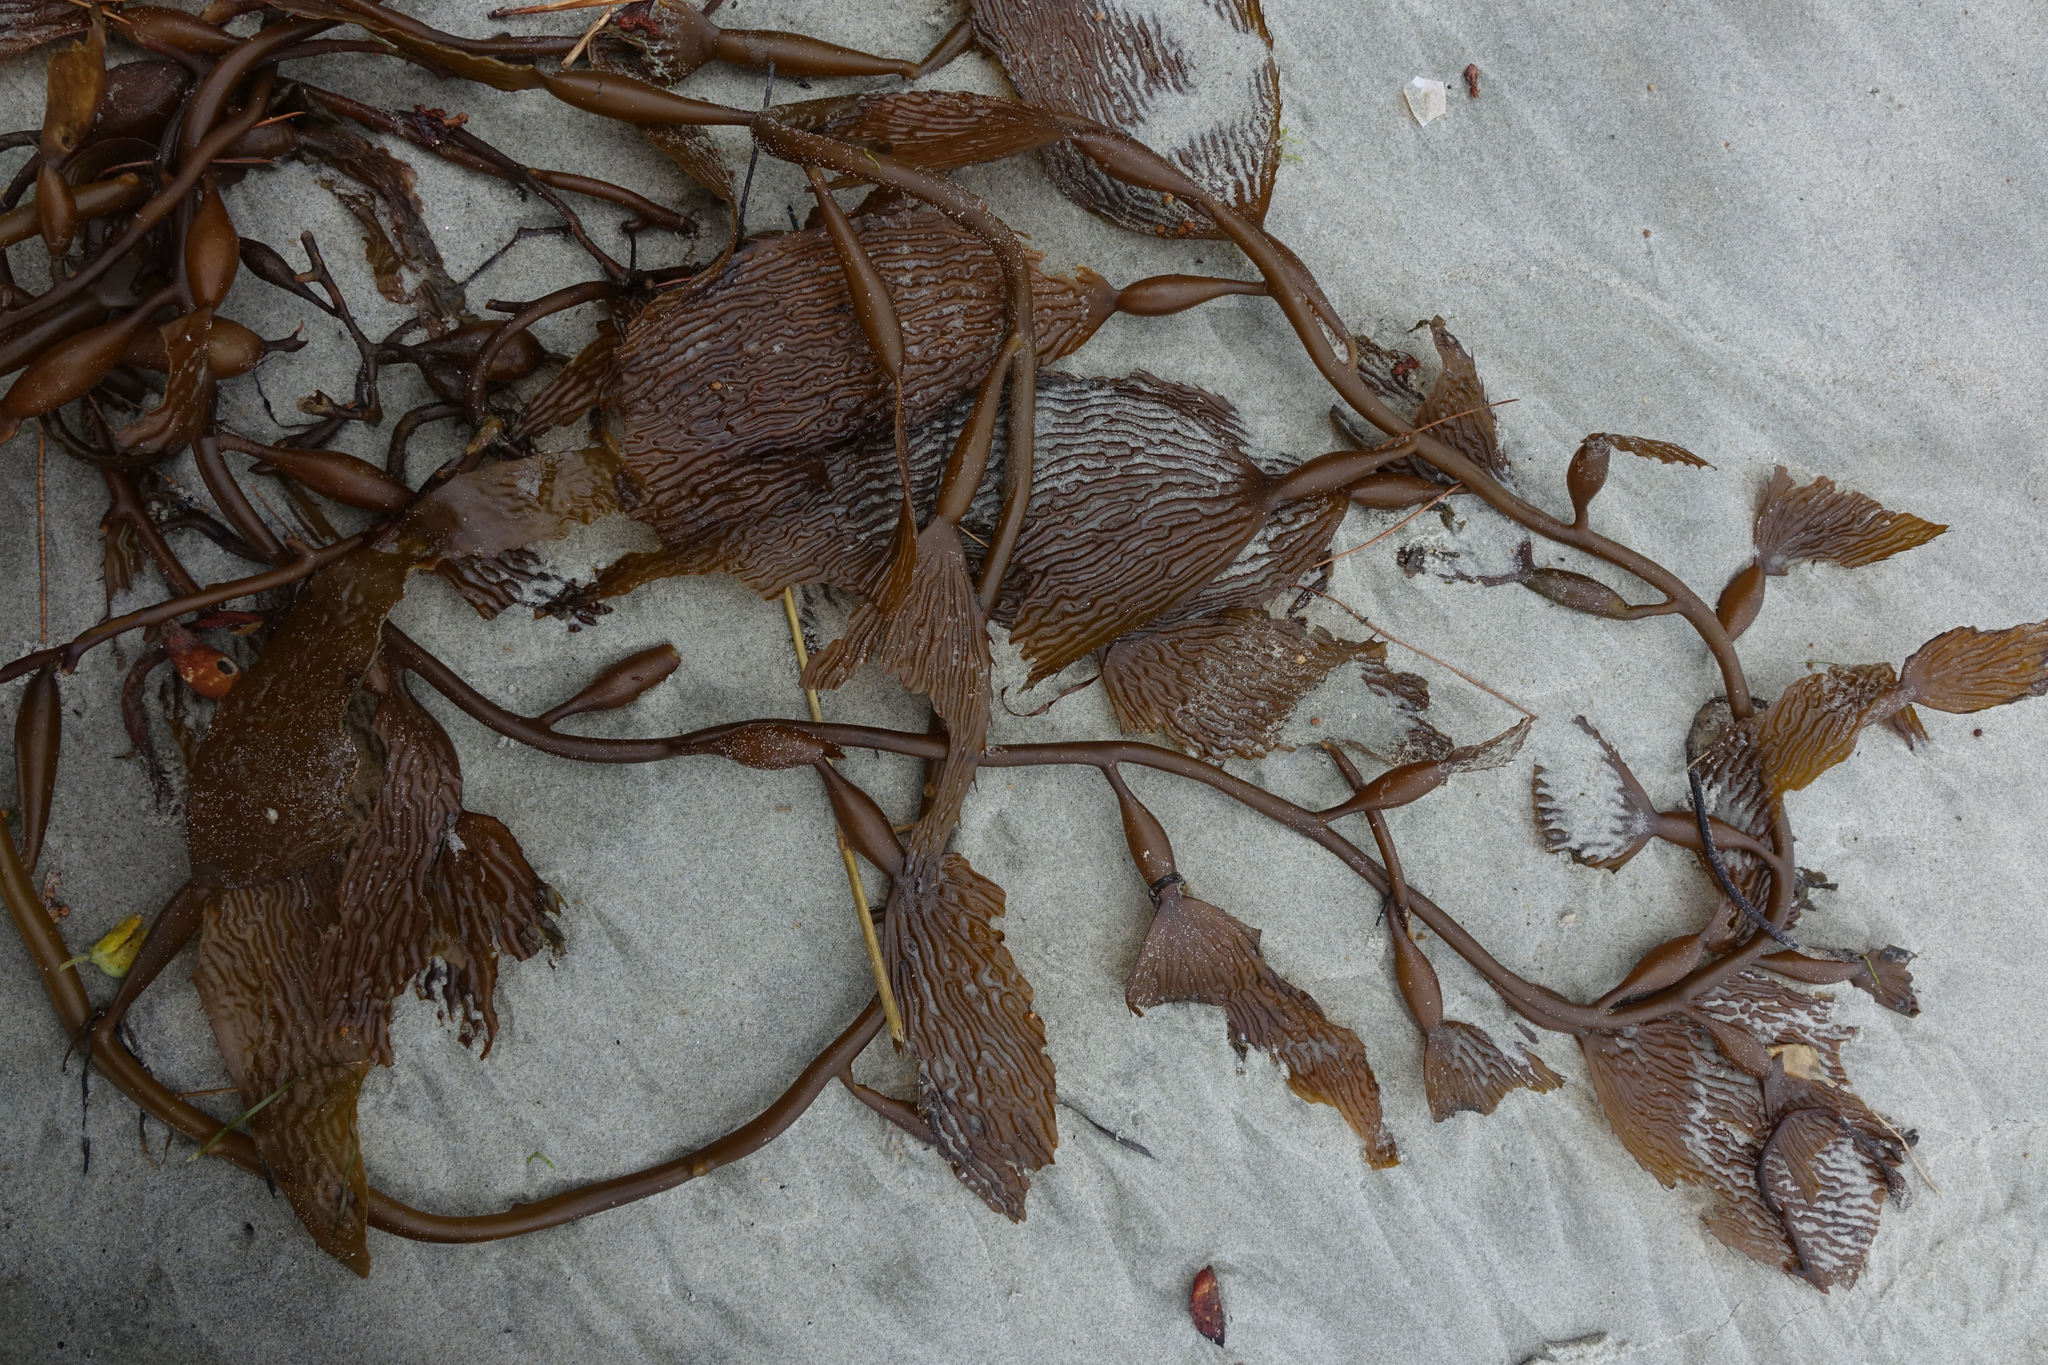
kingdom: Chromista
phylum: Ochrophyta
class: Phaeophyceae
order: Laminariales
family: Laminariaceae
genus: Macrocystis
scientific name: Macrocystis pyrifera
